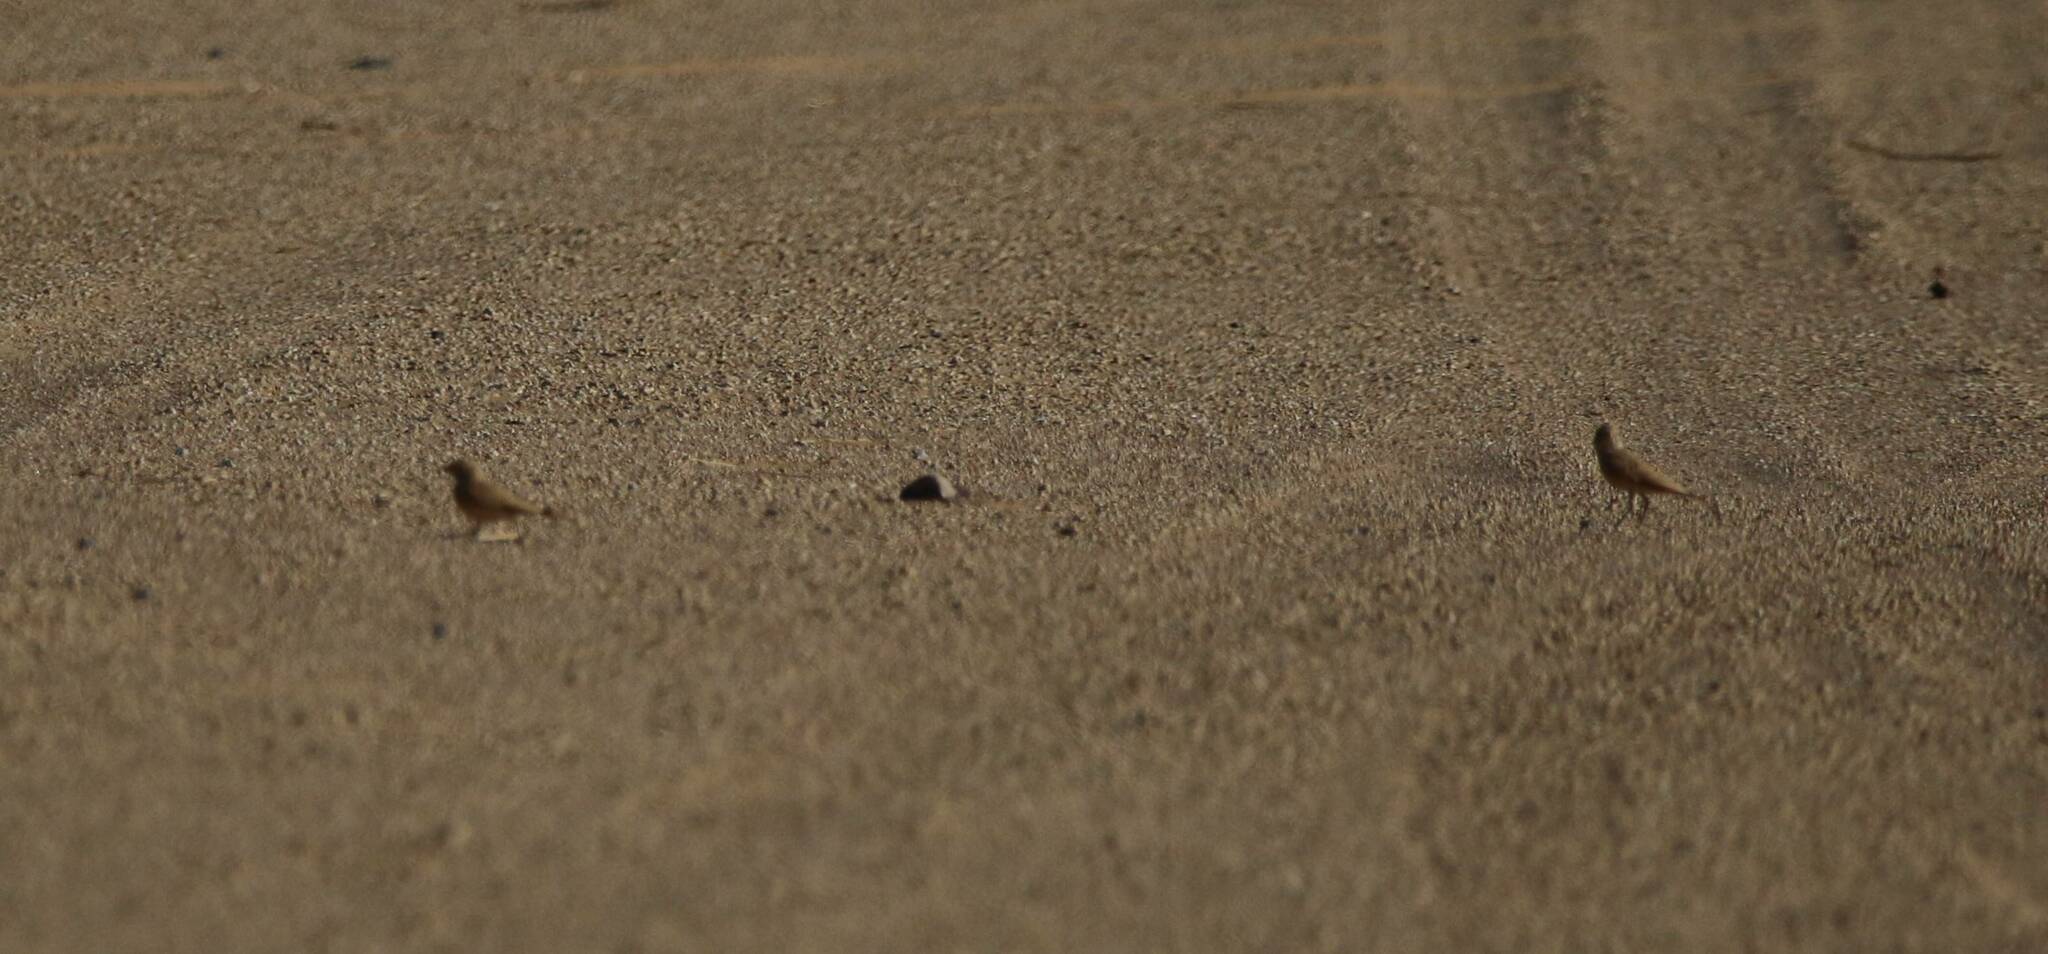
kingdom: Animalia
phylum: Chordata
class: Aves
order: Passeriformes
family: Alaudidae
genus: Ammomanes
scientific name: Ammomanes cinctura
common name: Bar-tailed lark
